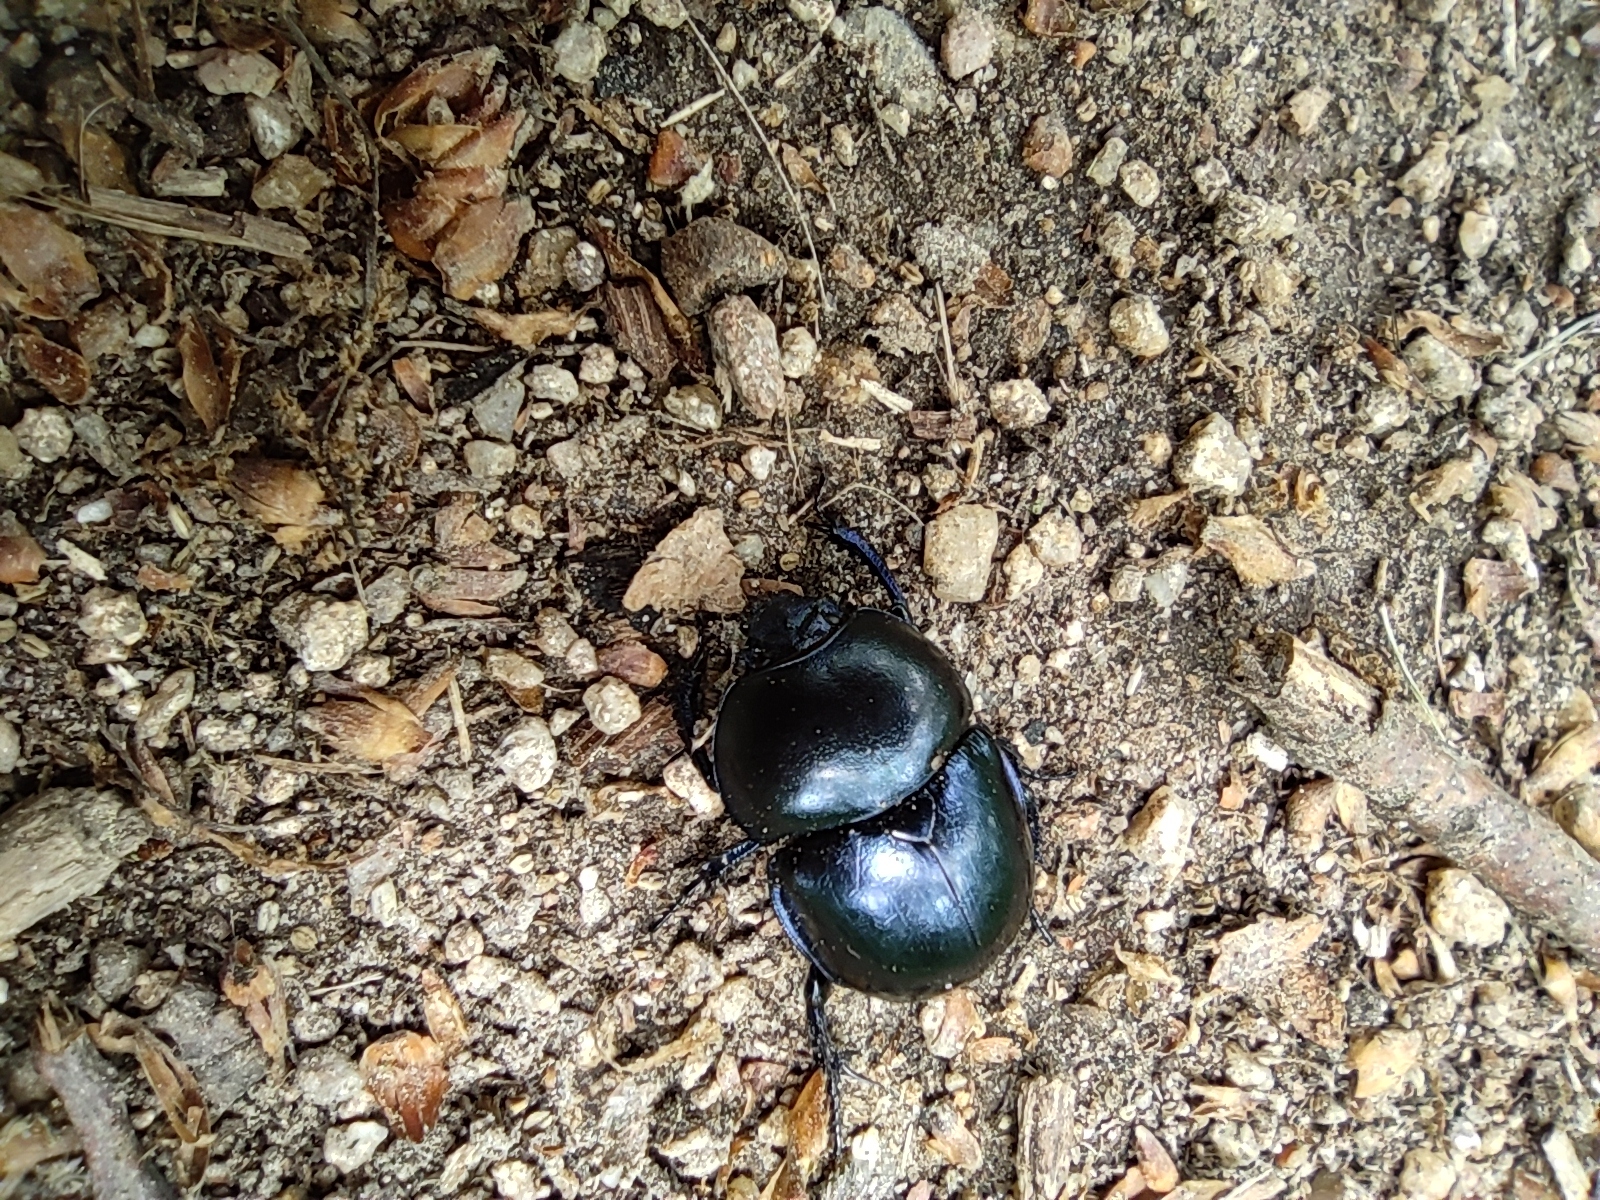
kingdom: Animalia
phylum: Arthropoda
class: Insecta
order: Coleoptera
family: Geotrupidae
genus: Trypocopris
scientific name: Trypocopris vernalis
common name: Spring dumbledor
